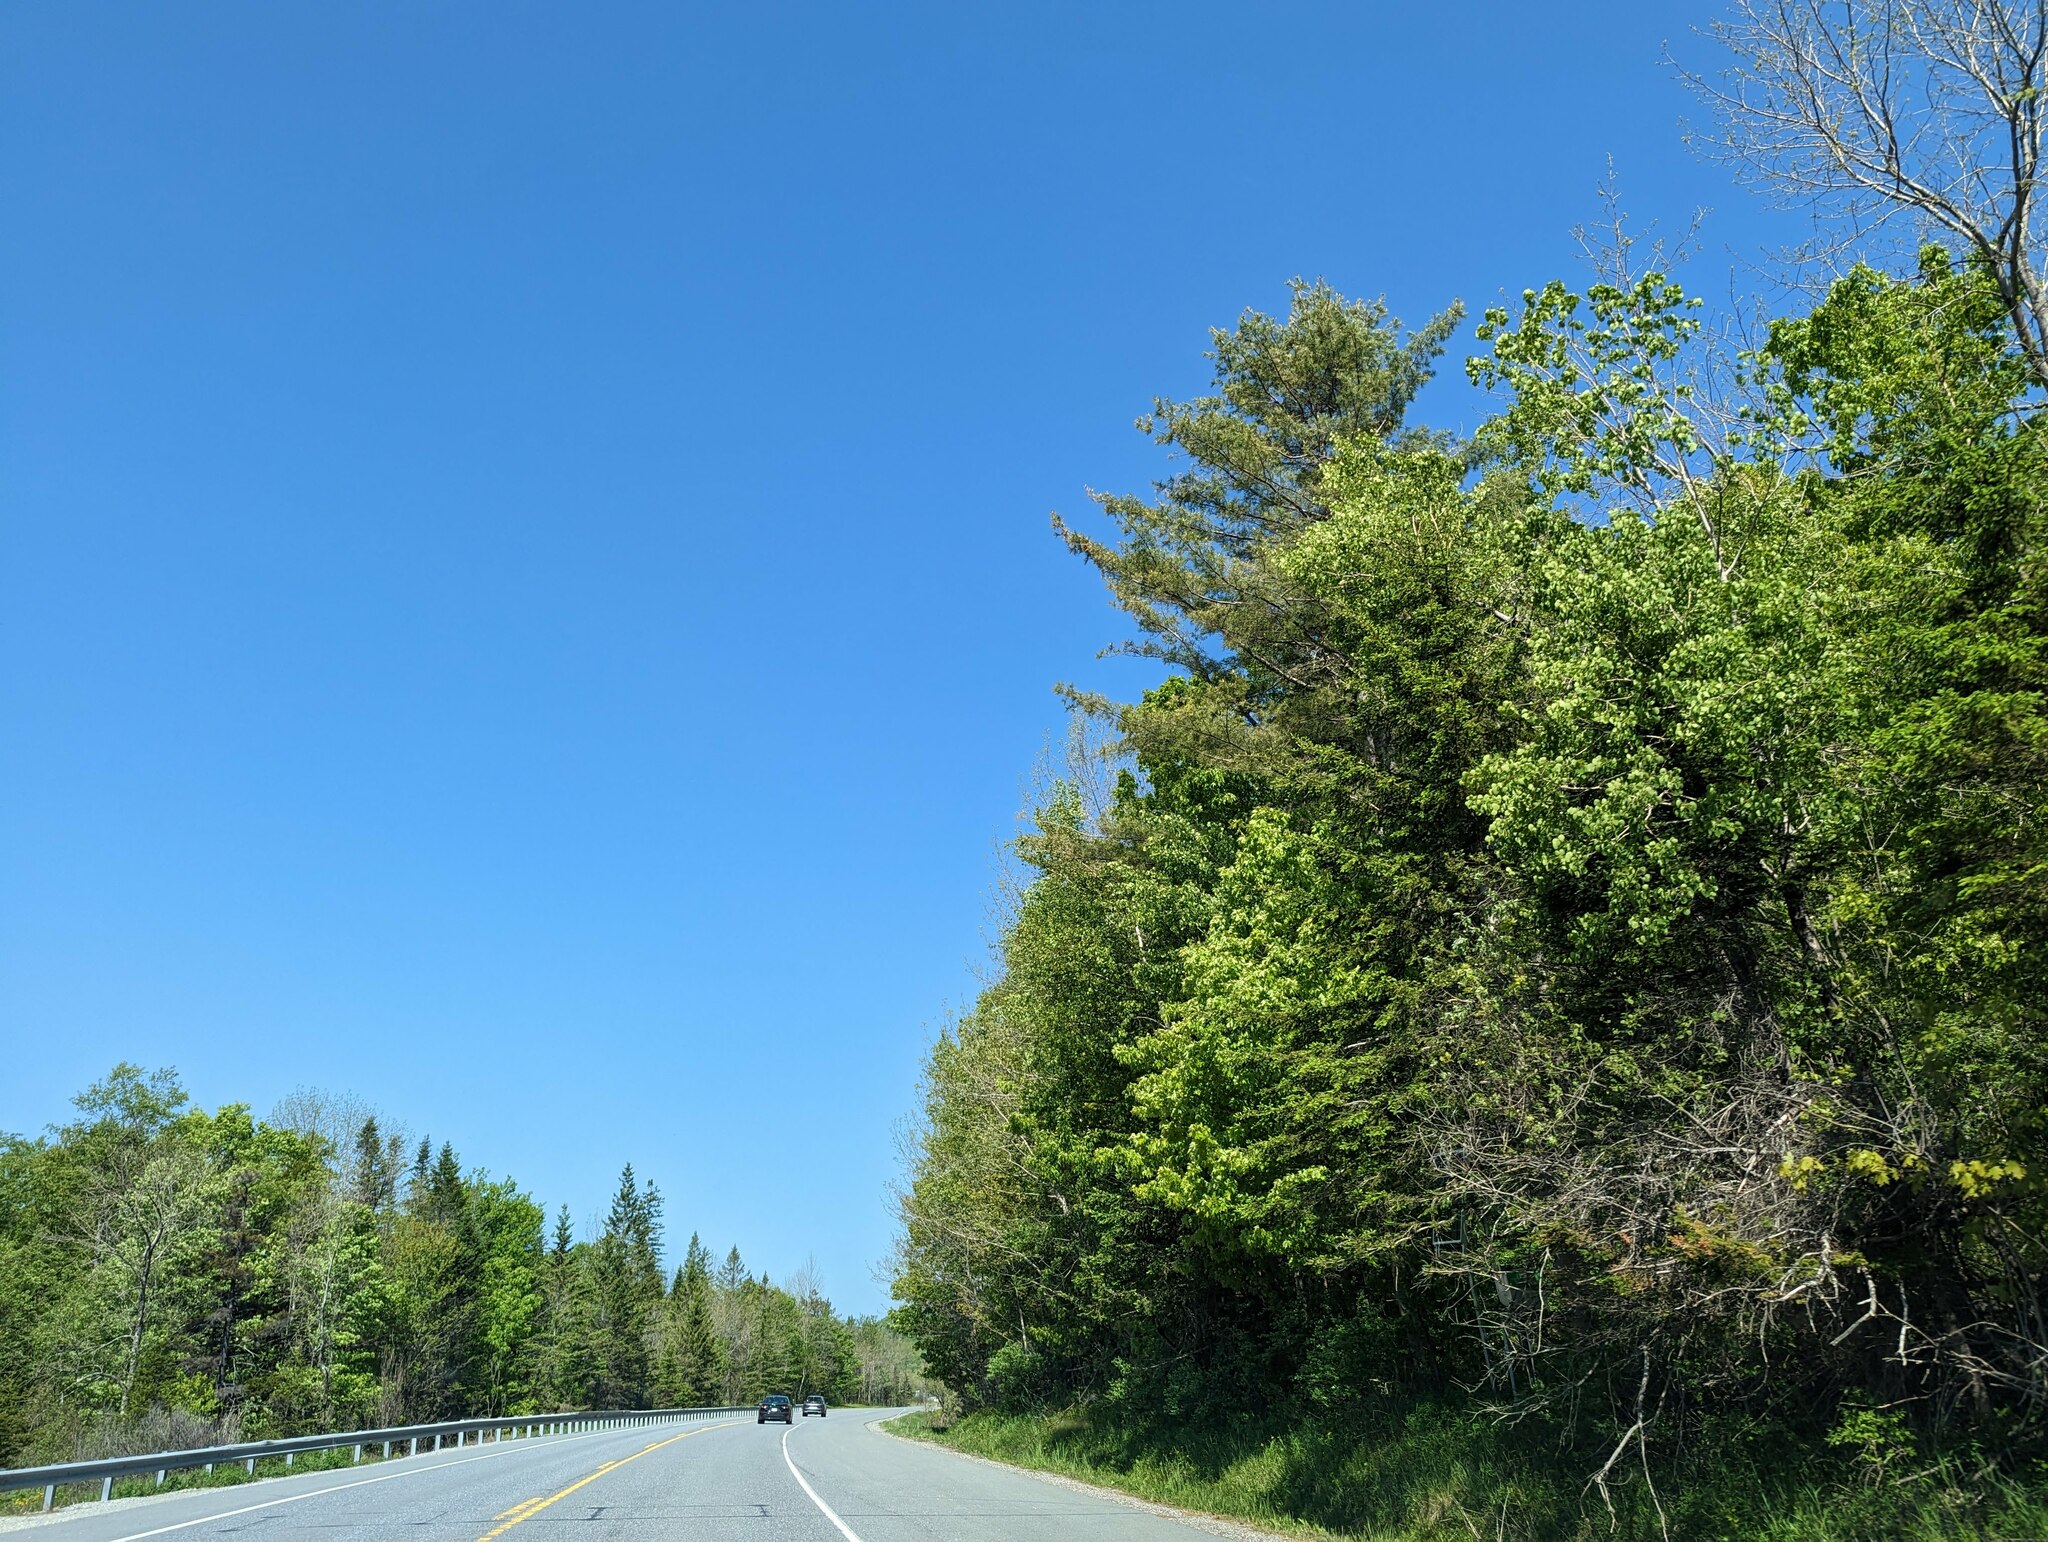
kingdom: Plantae
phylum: Tracheophyta
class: Pinopsida
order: Pinales
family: Pinaceae
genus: Pinus
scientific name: Pinus strobus
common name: Weymouth pine
